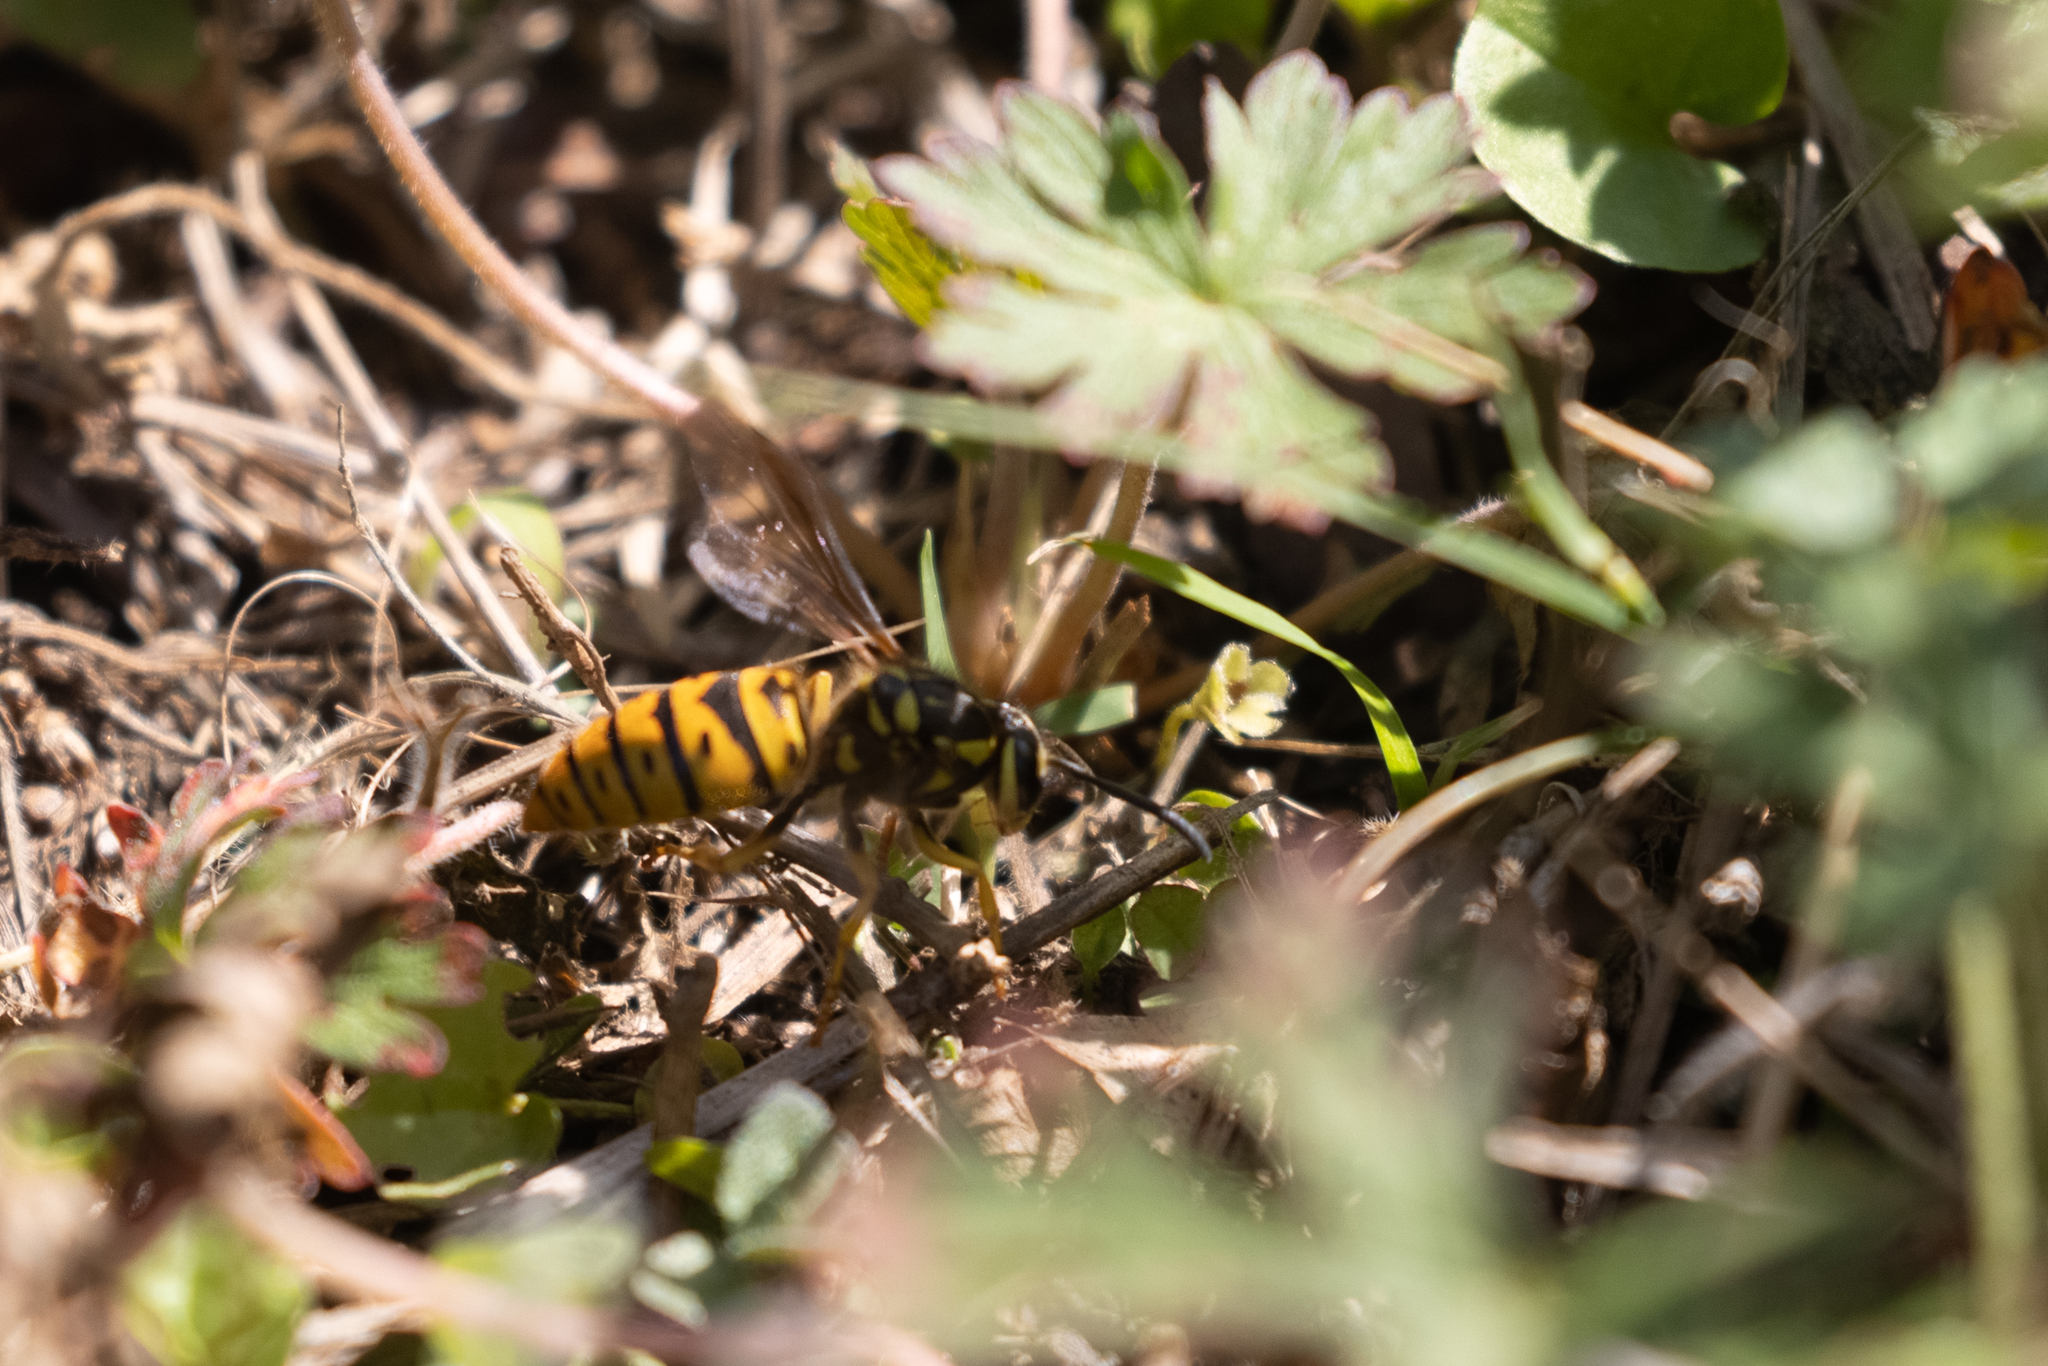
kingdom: Animalia
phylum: Arthropoda
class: Insecta
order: Hymenoptera
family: Vespidae
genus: Vespula
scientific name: Vespula maculifrons
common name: Eastern yellowjacket
